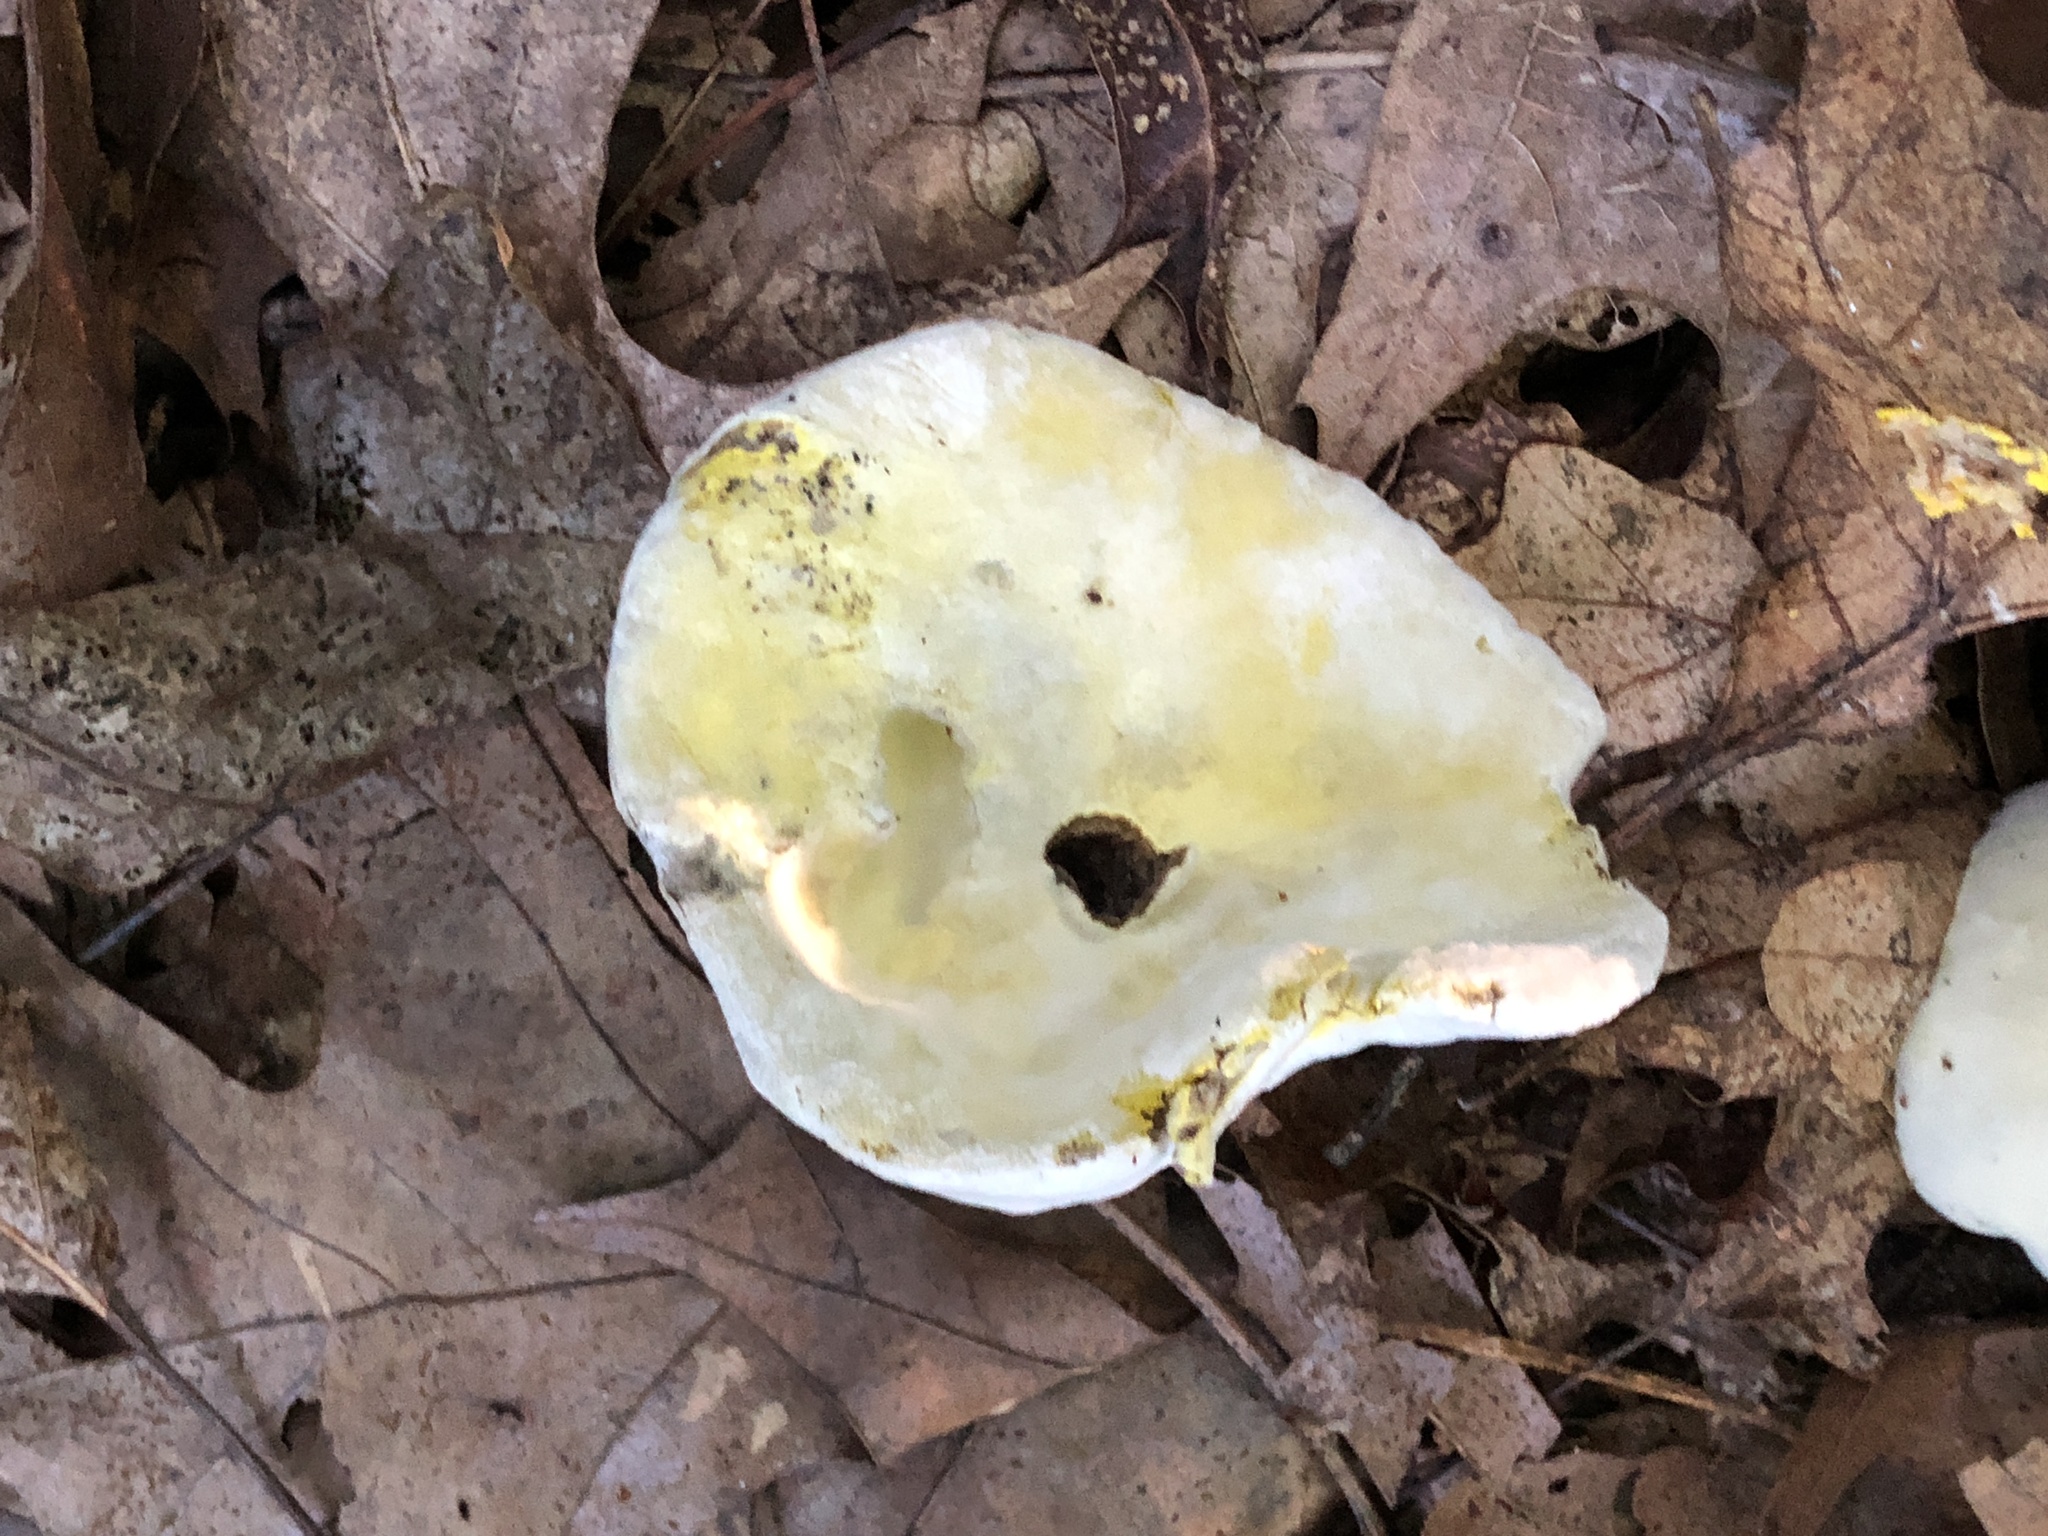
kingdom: Fungi
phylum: Ascomycota
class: Sordariomycetes
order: Hypocreales
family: Hypocreaceae
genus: Hypomyces
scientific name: Hypomyces chrysospermus
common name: Bolete mould
